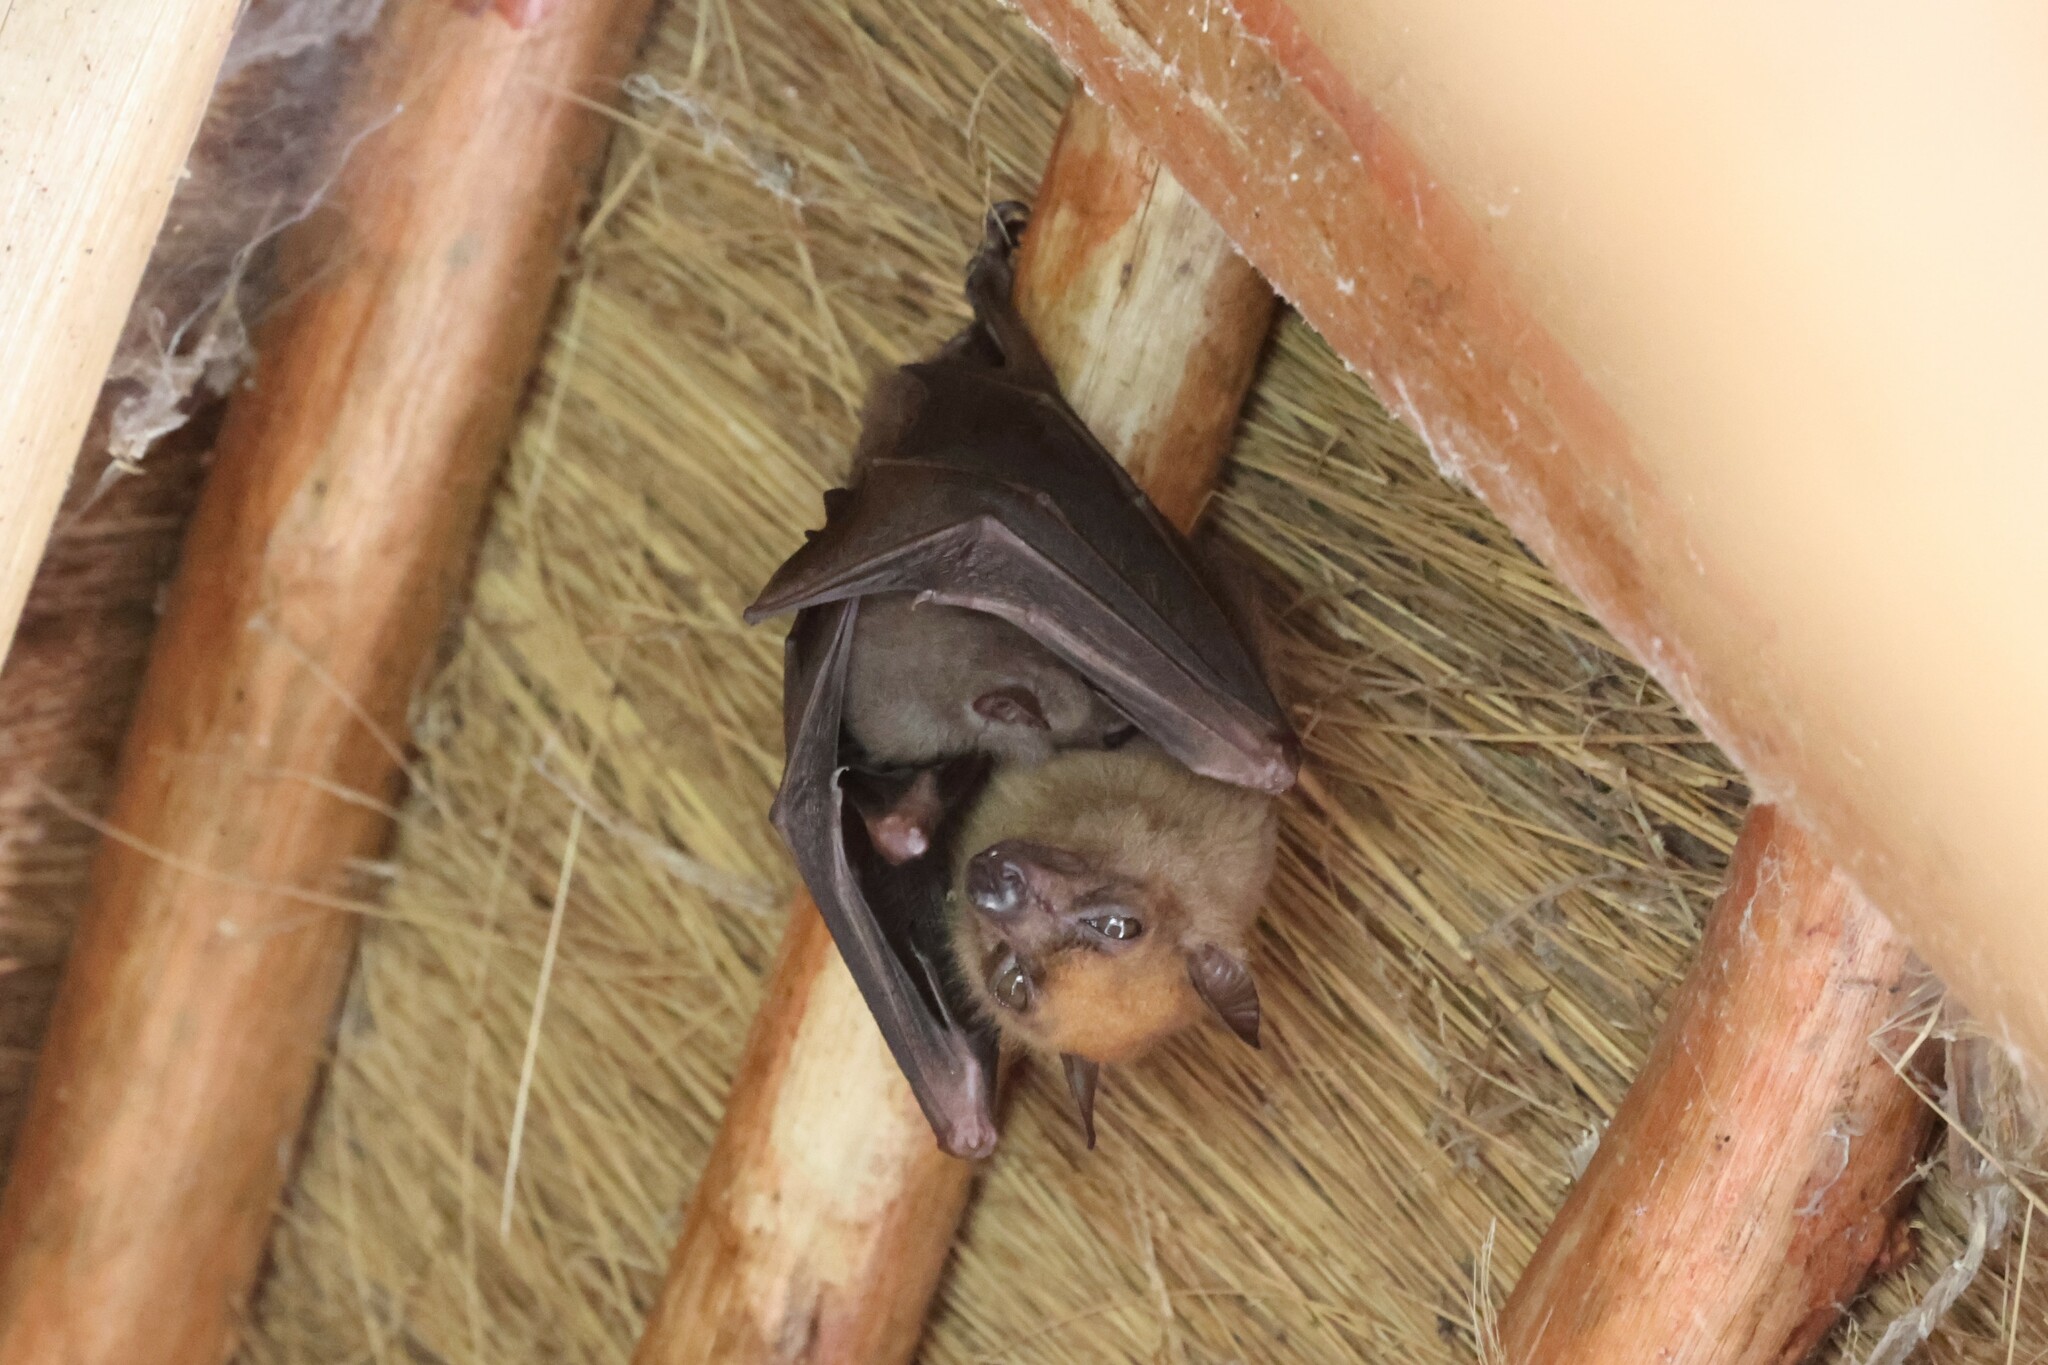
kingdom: Animalia
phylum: Chordata
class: Mammalia
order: Chiroptera
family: Pteropodidae
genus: Myonycteris
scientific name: Myonycteris angolensis
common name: Angolan rousette
